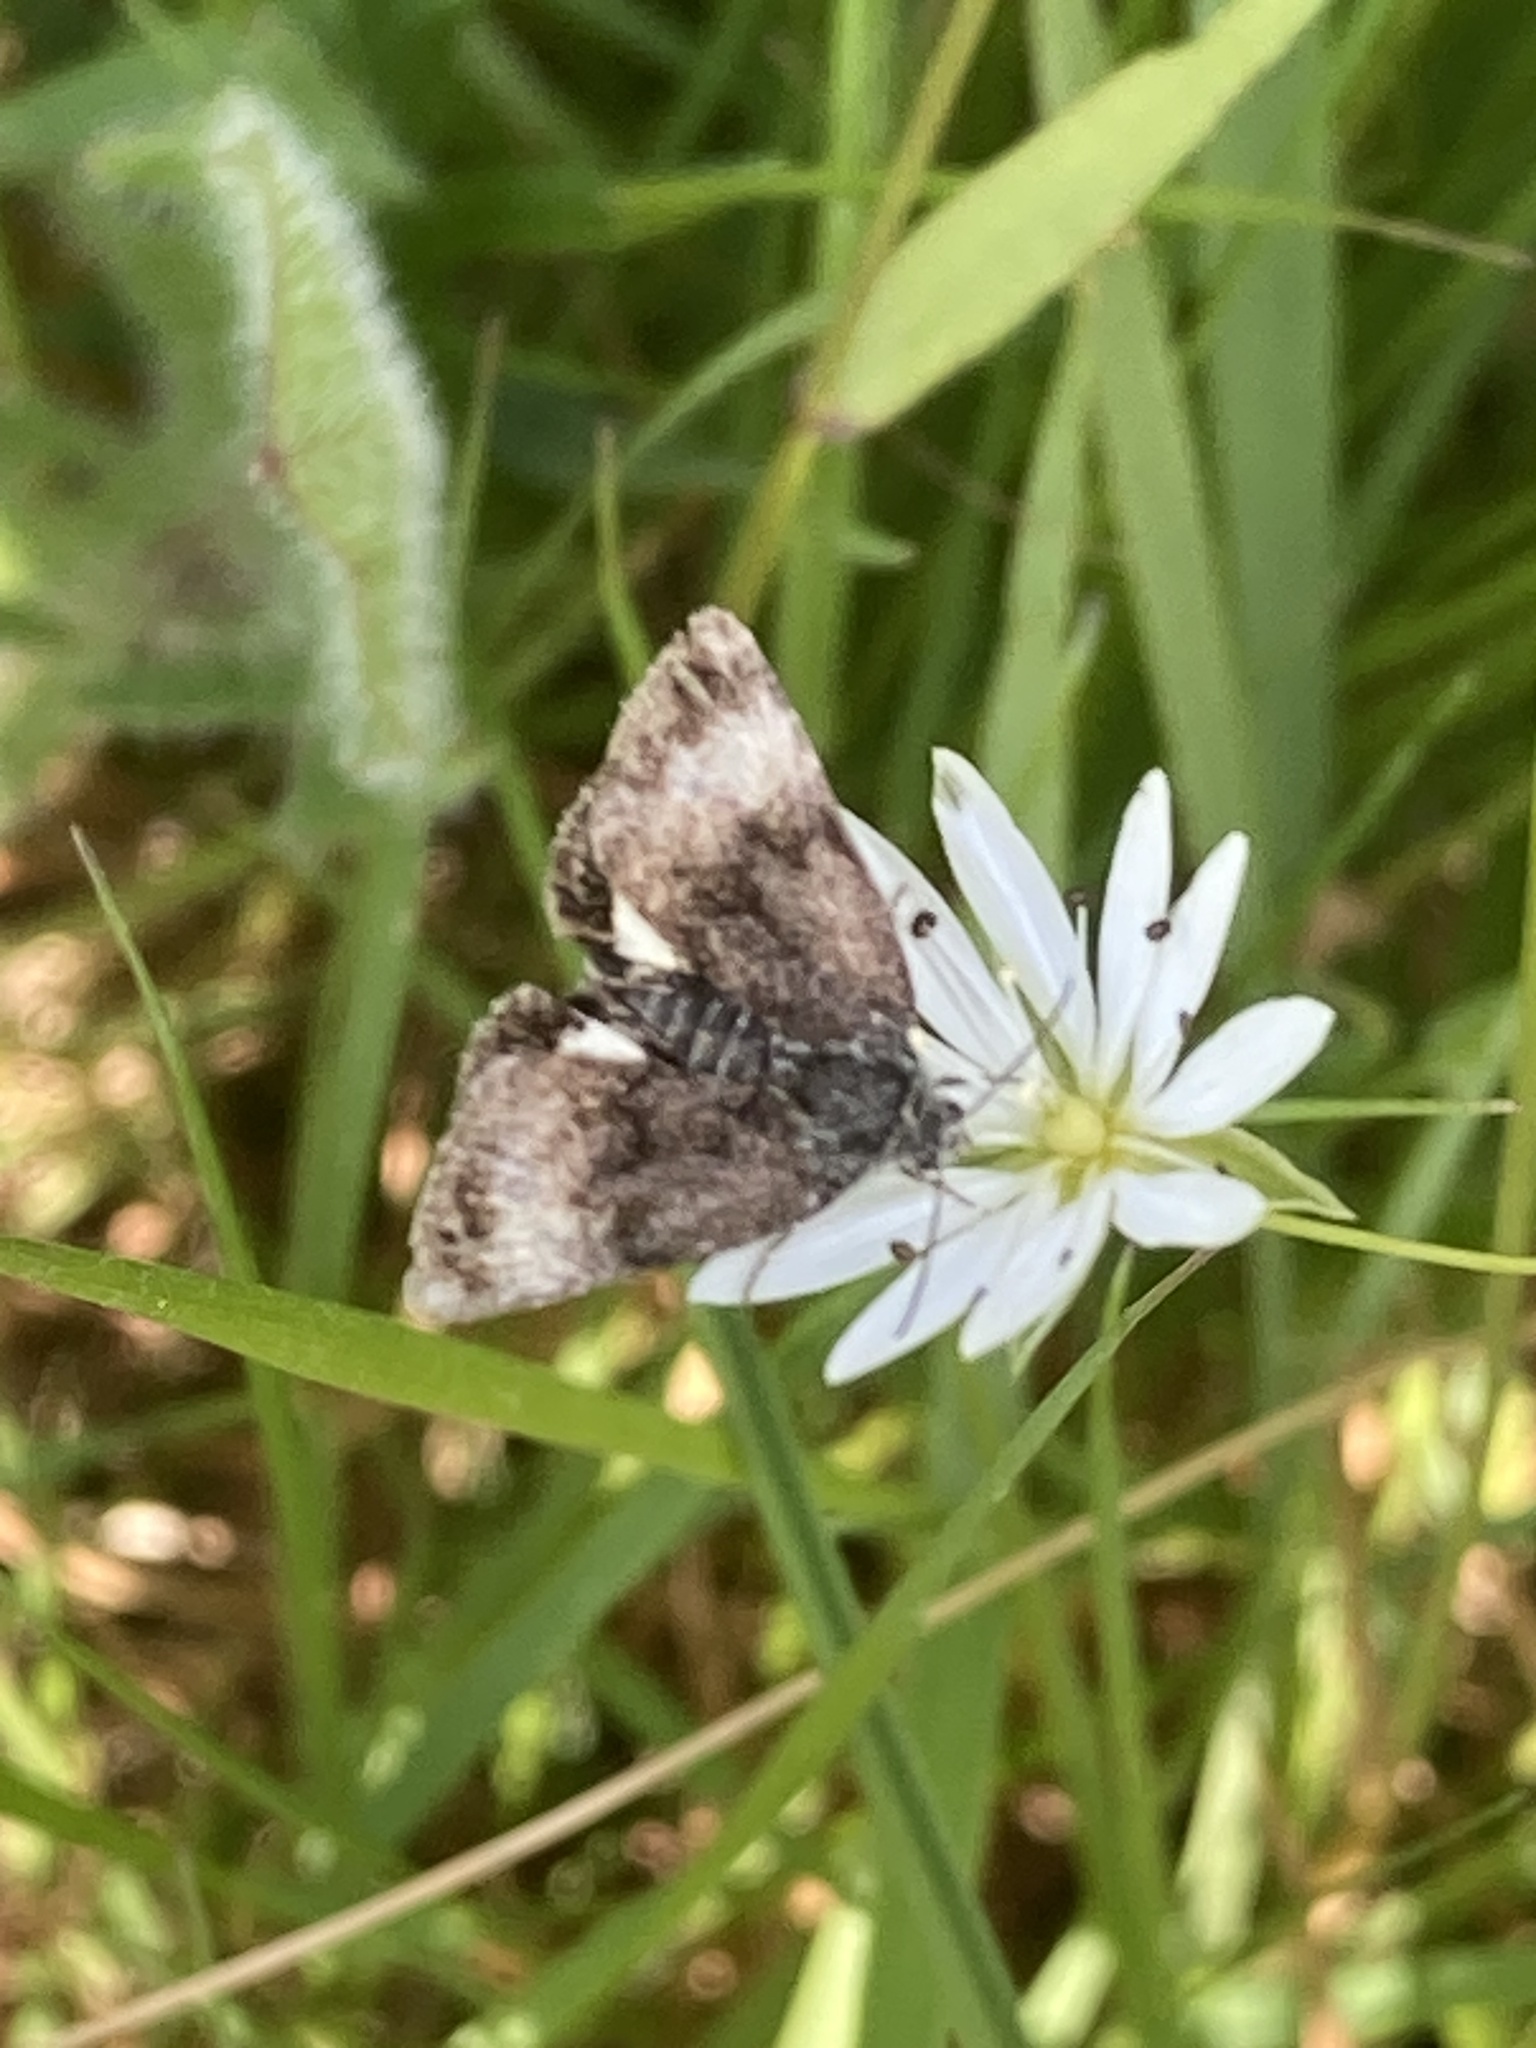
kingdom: Animalia
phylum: Arthropoda
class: Insecta
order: Lepidoptera
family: Noctuidae
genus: Panemeria
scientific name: Panemeria tenebrata
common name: Small yellow underwing
